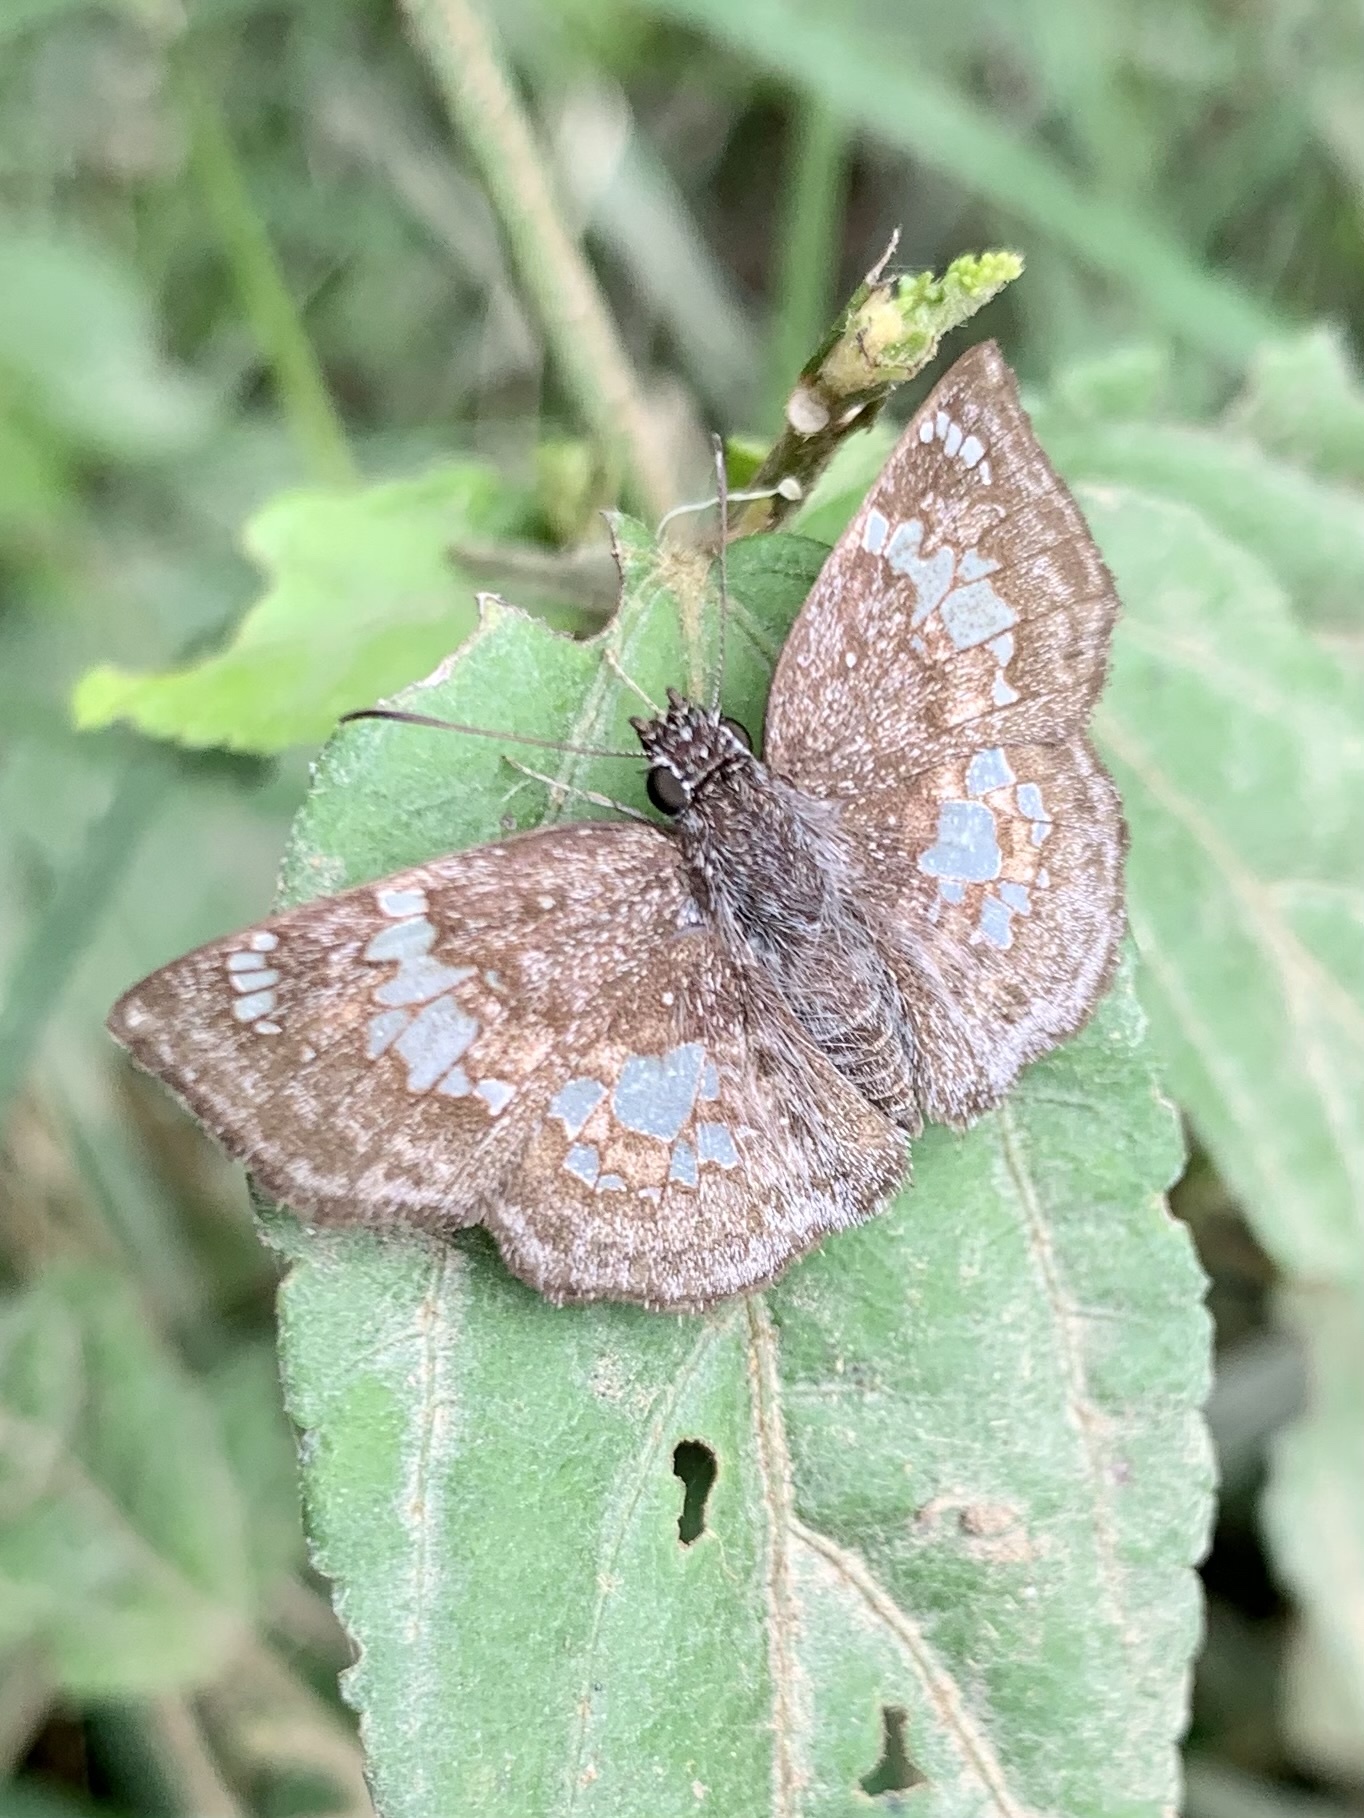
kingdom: Animalia
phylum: Arthropoda
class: Insecta
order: Lepidoptera
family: Hesperiidae
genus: Xenophanes
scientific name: Xenophanes tryxus
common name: Glassy-winged skipper
